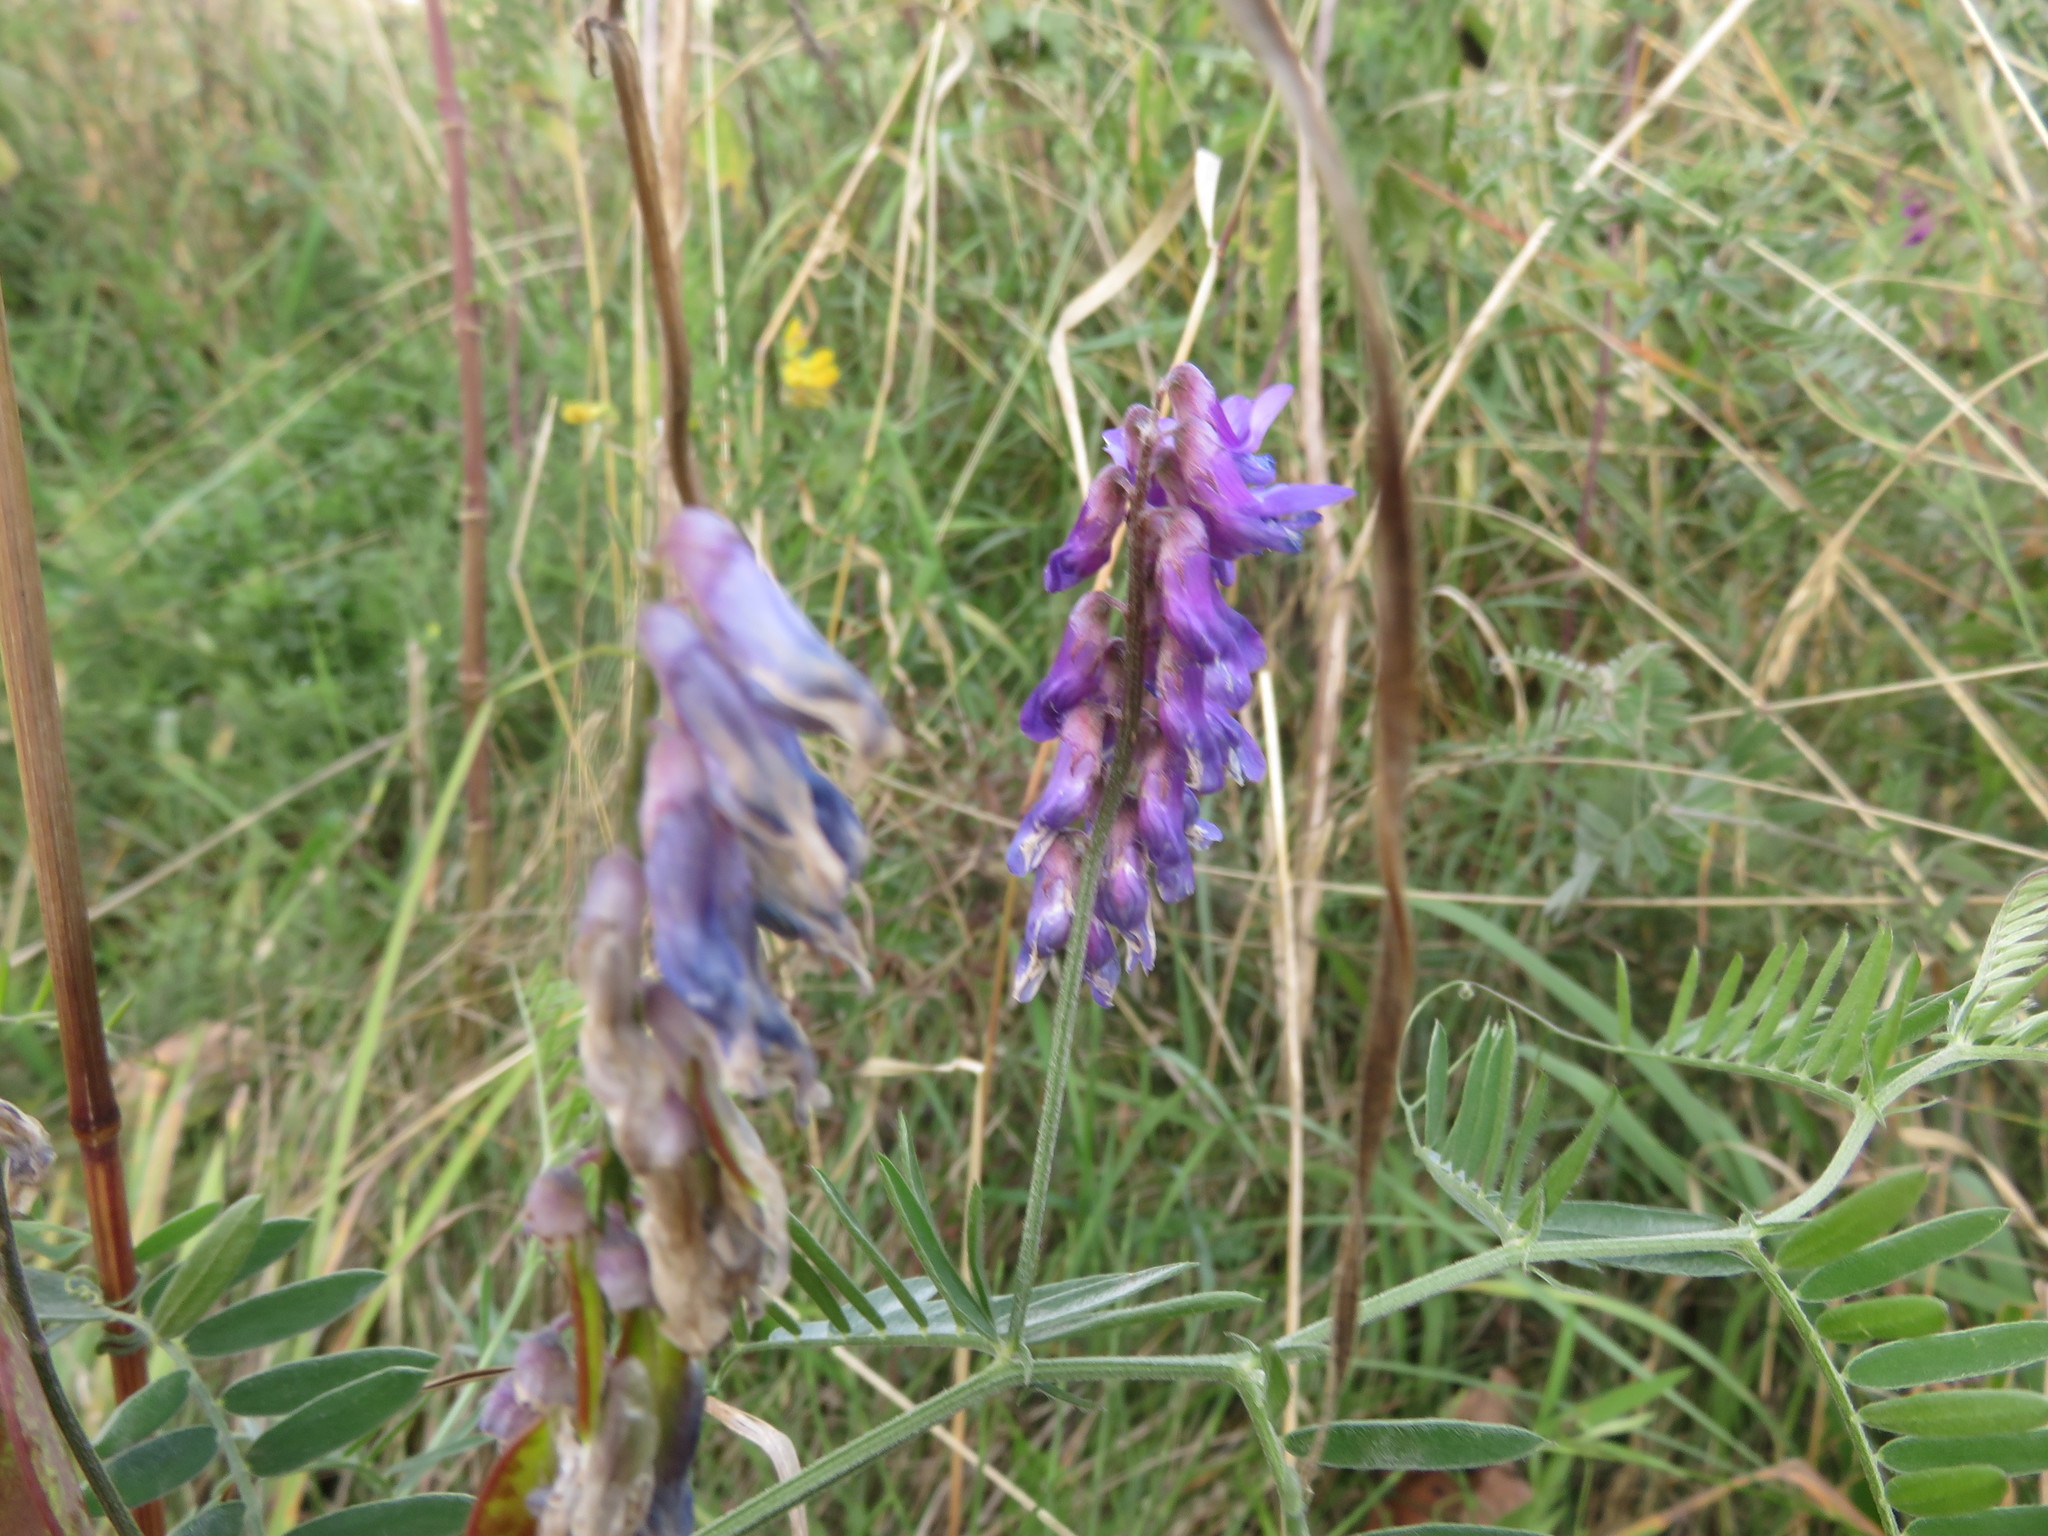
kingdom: Plantae
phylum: Tracheophyta
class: Magnoliopsida
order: Fabales
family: Fabaceae
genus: Vicia
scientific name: Vicia cracca
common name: Bird vetch
